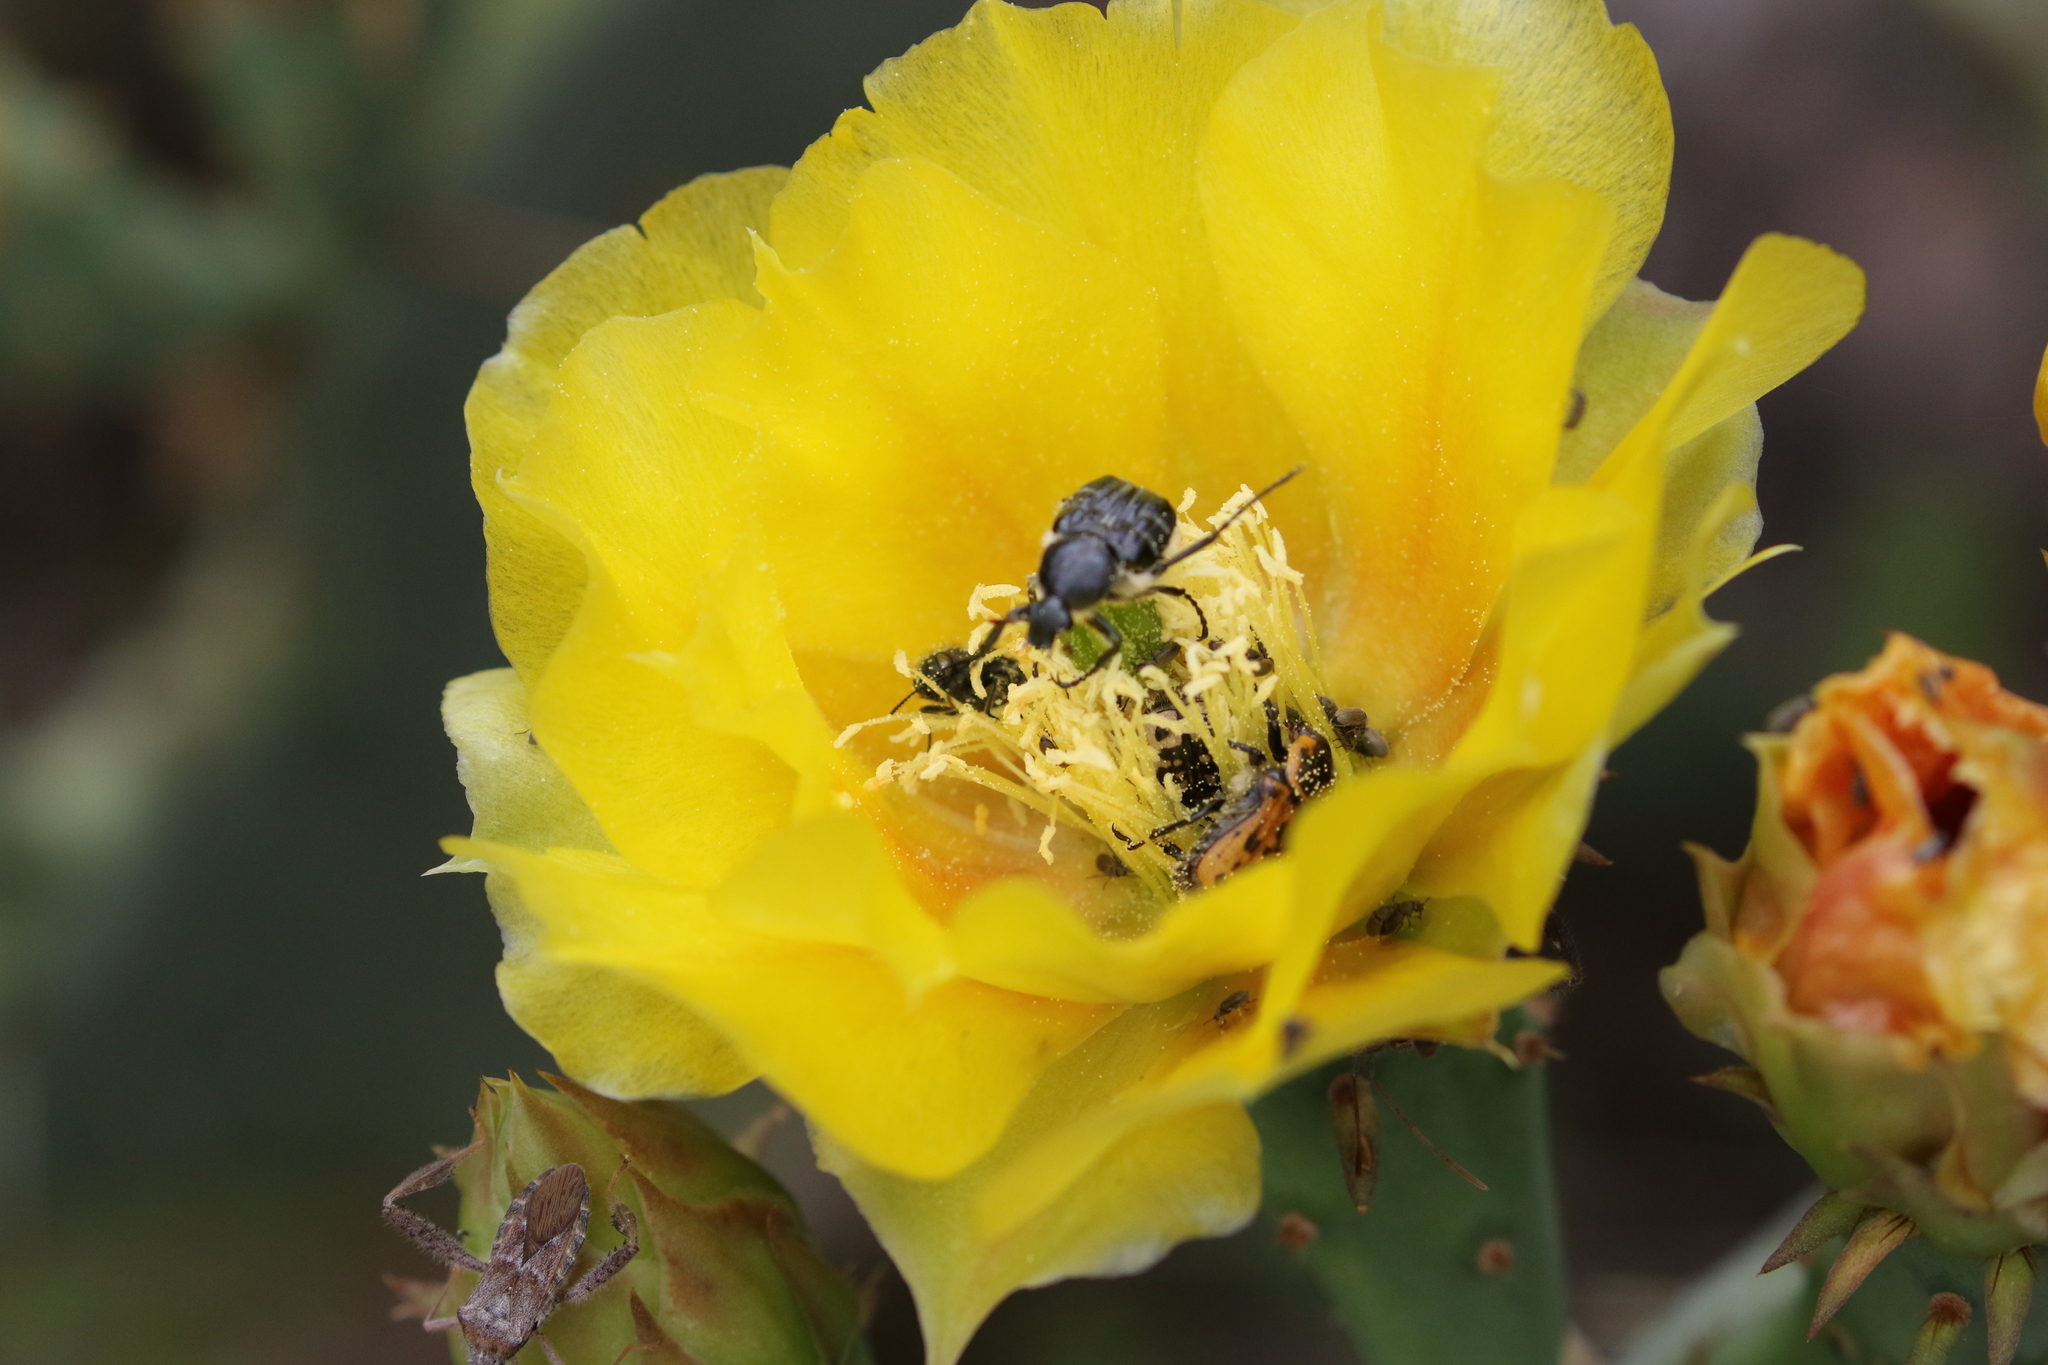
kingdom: Animalia
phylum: Arthropoda
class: Insecta
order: Coleoptera
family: Scarabaeidae
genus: Trichiotinus
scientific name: Trichiotinus texanus
